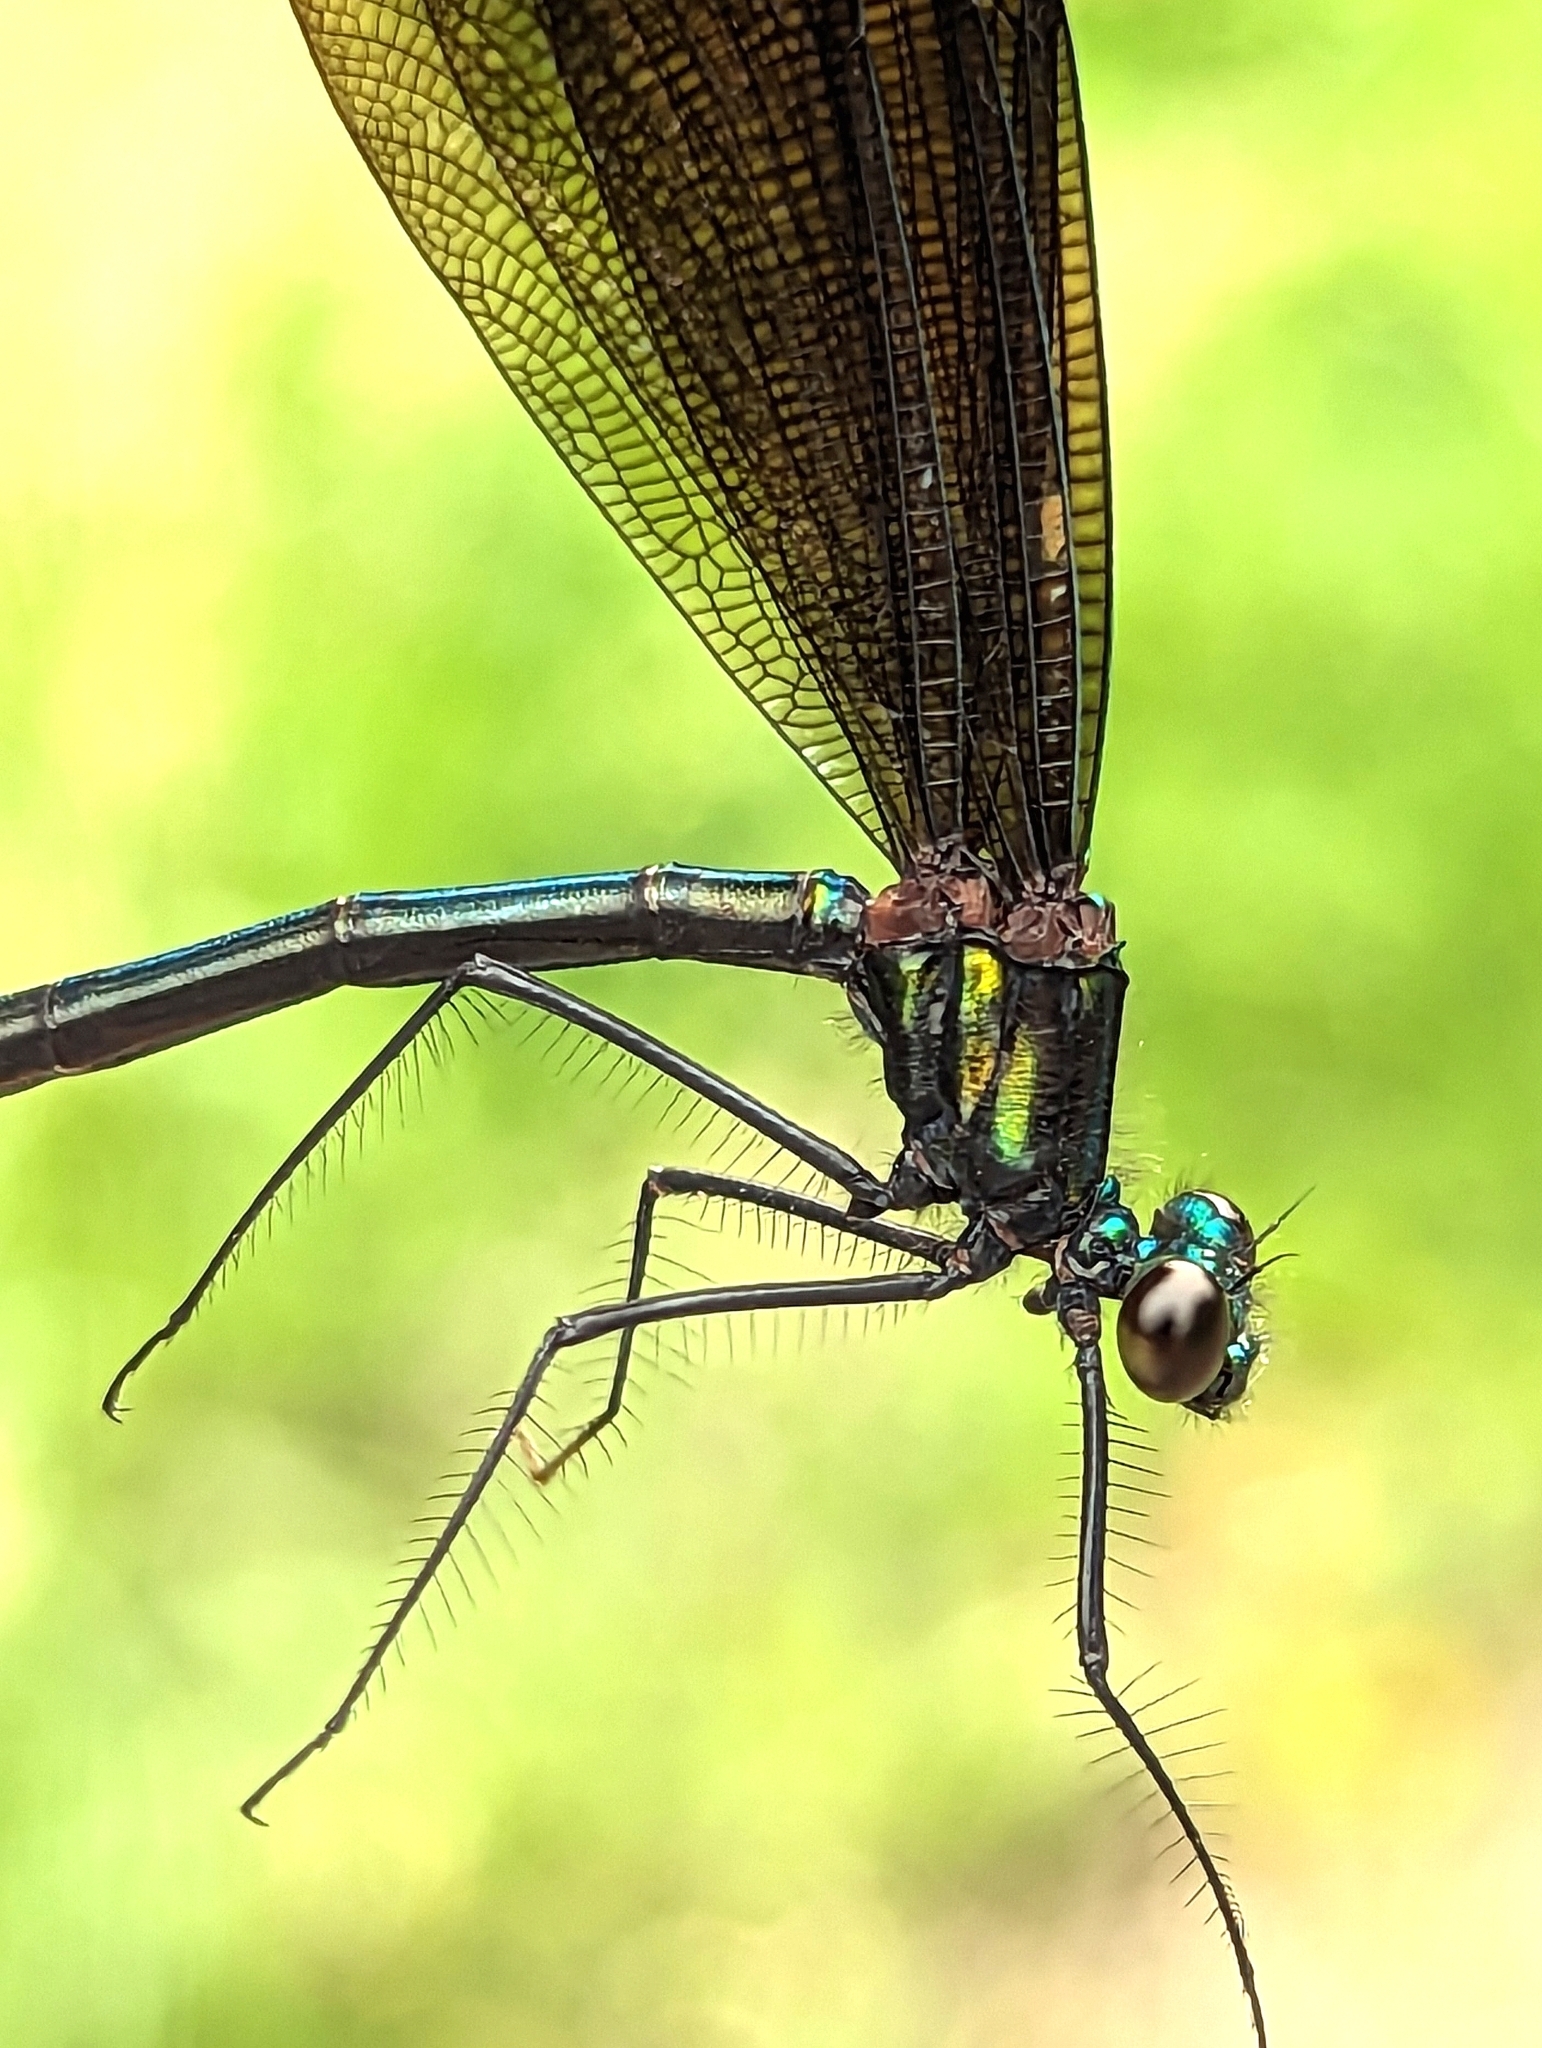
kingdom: Animalia
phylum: Arthropoda
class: Insecta
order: Odonata
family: Calopterygidae
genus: Calopteryx
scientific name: Calopteryx maculata
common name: Ebony jewelwing
